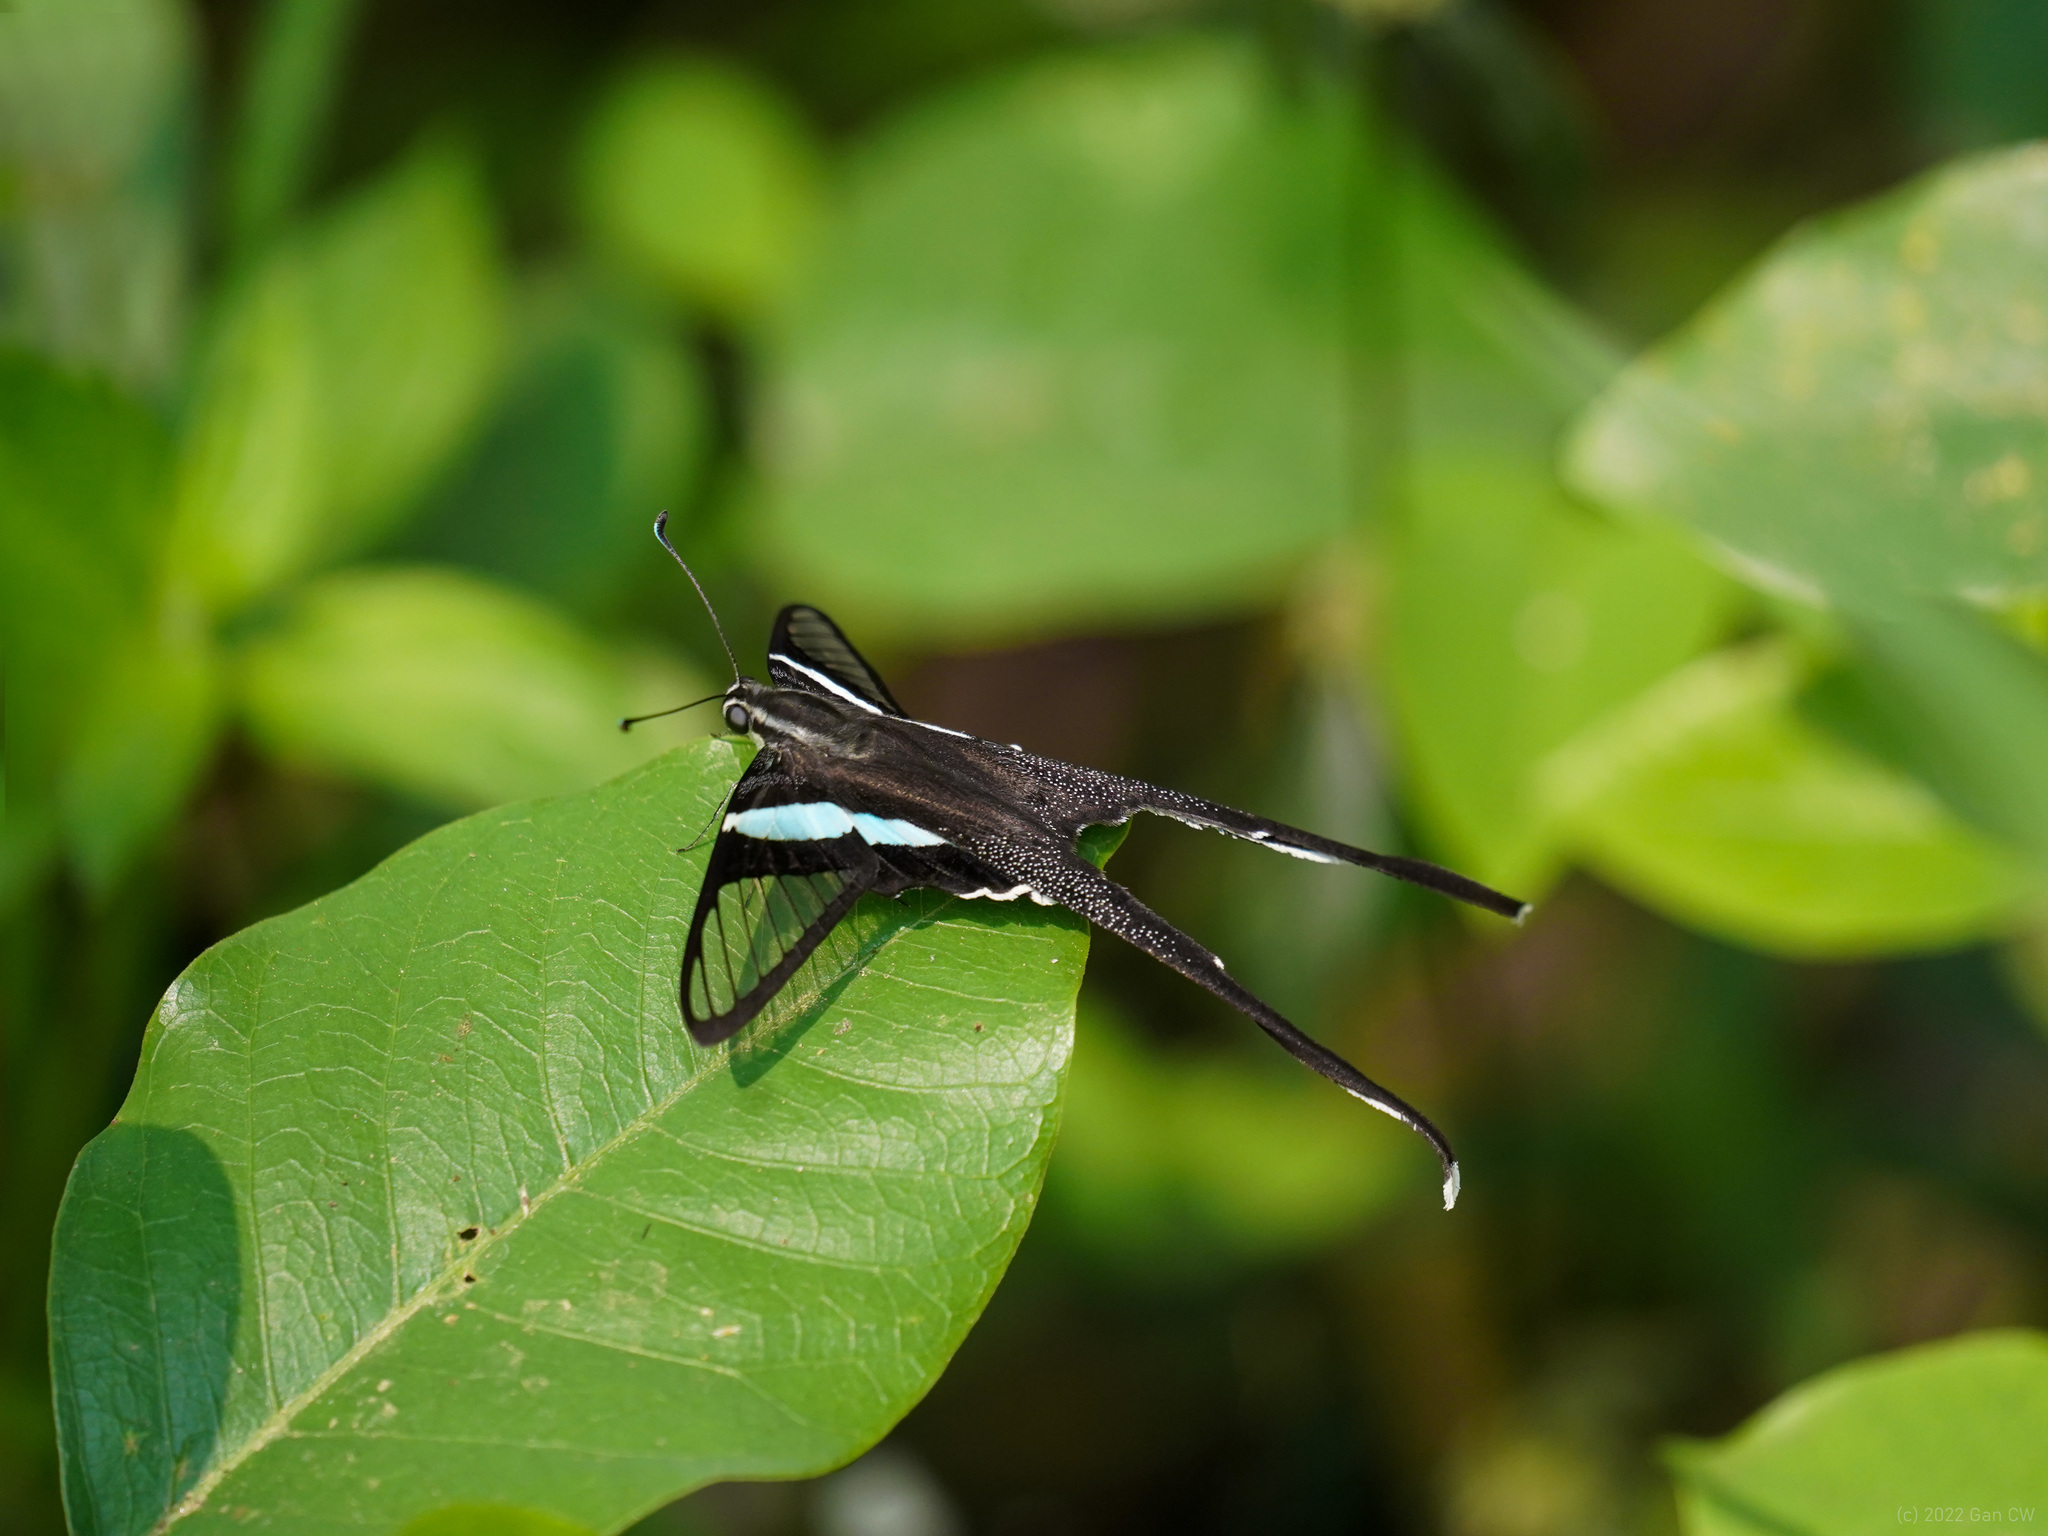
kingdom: Animalia
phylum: Arthropoda
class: Insecta
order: Lepidoptera
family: Papilionidae
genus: Lamproptera
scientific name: Lamproptera meges
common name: Green dragontail
